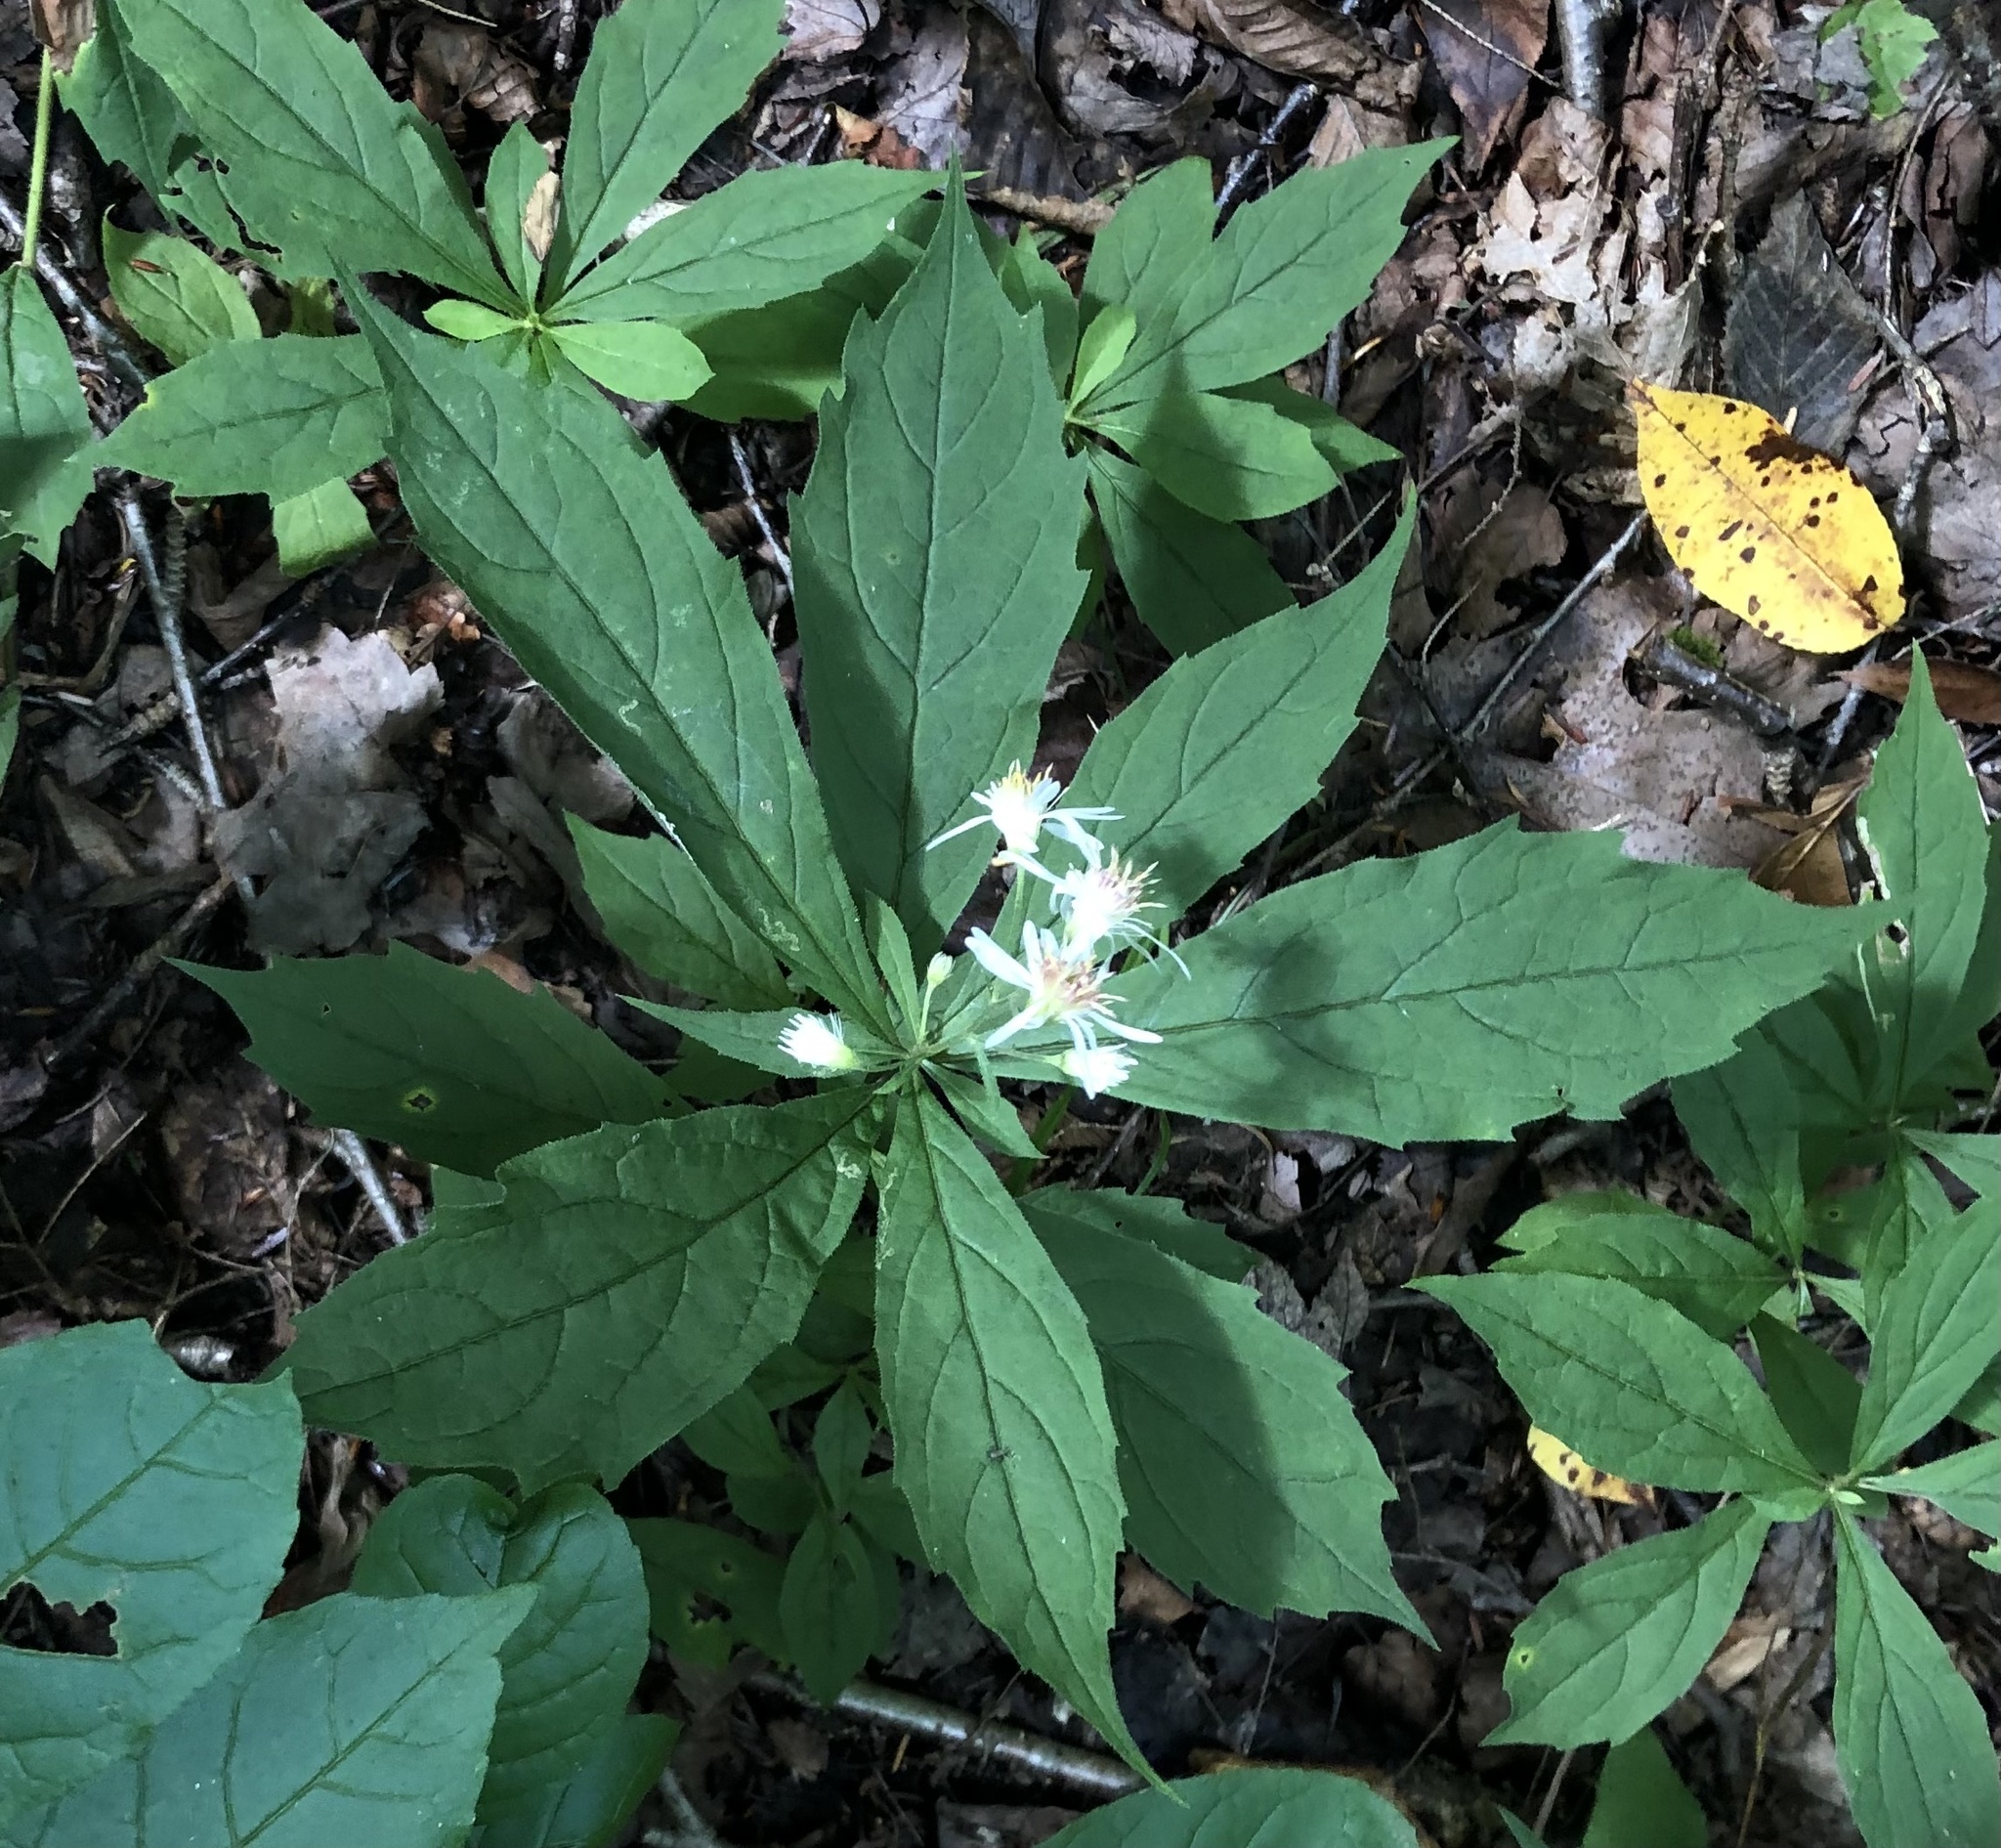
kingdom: Plantae
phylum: Tracheophyta
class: Magnoliopsida
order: Asterales
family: Asteraceae
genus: Oclemena
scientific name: Oclemena acuminata
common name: Mountain aster
